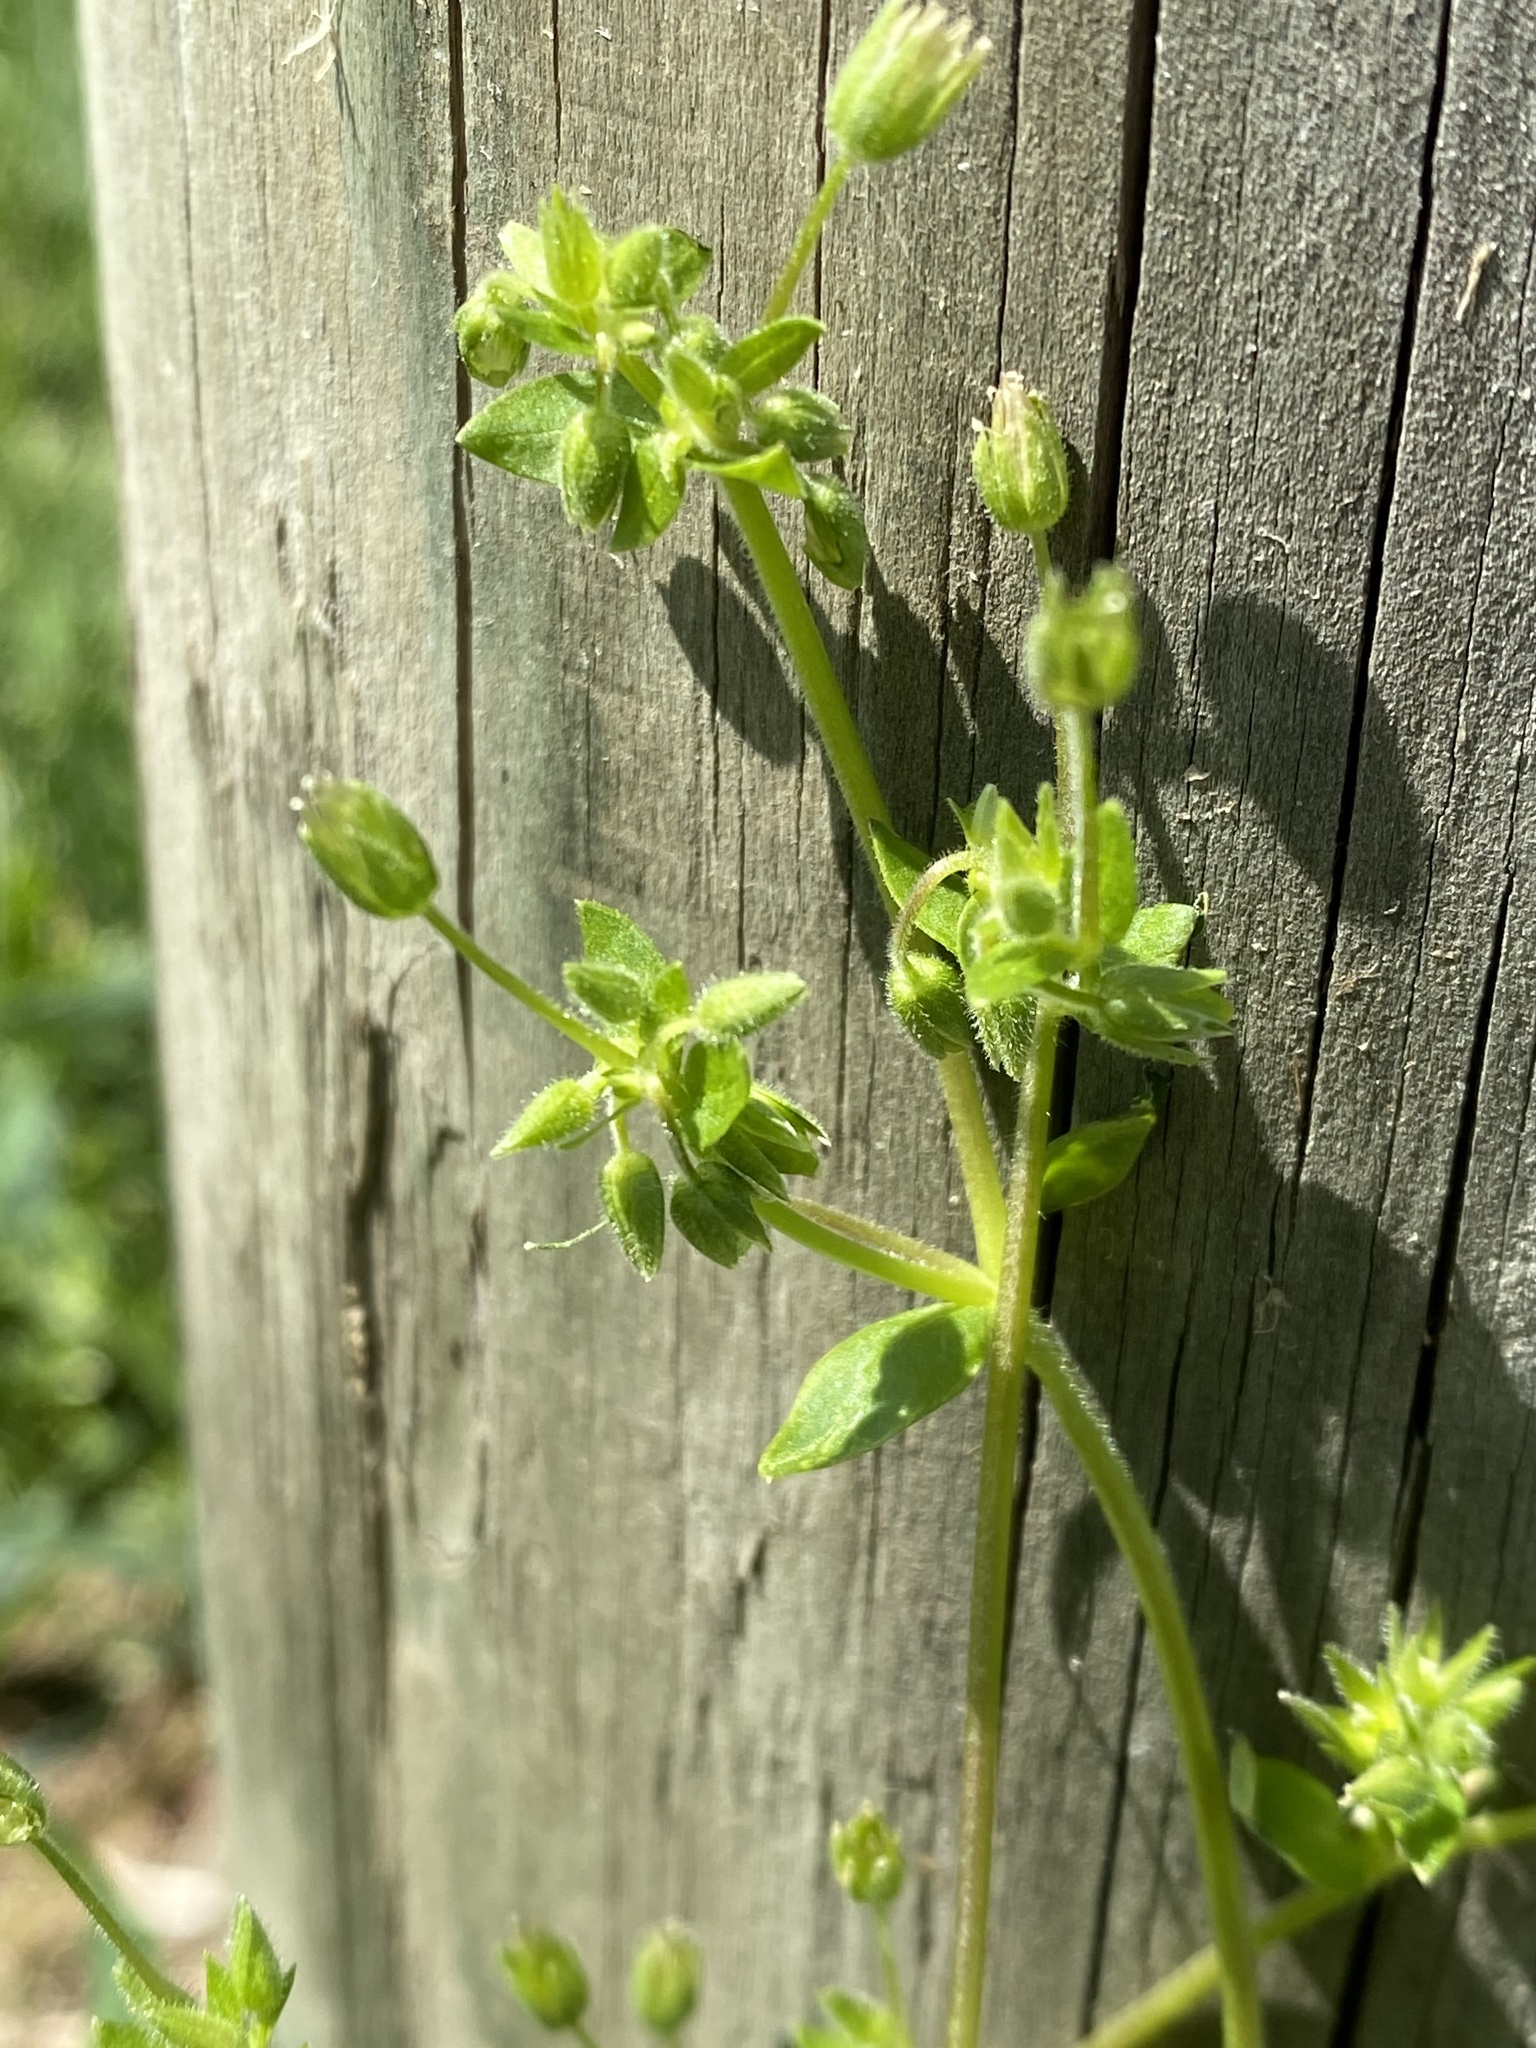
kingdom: Plantae
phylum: Tracheophyta
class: Magnoliopsida
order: Caryophyllales
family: Caryophyllaceae
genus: Stellaria
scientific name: Stellaria media
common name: Common chickweed
